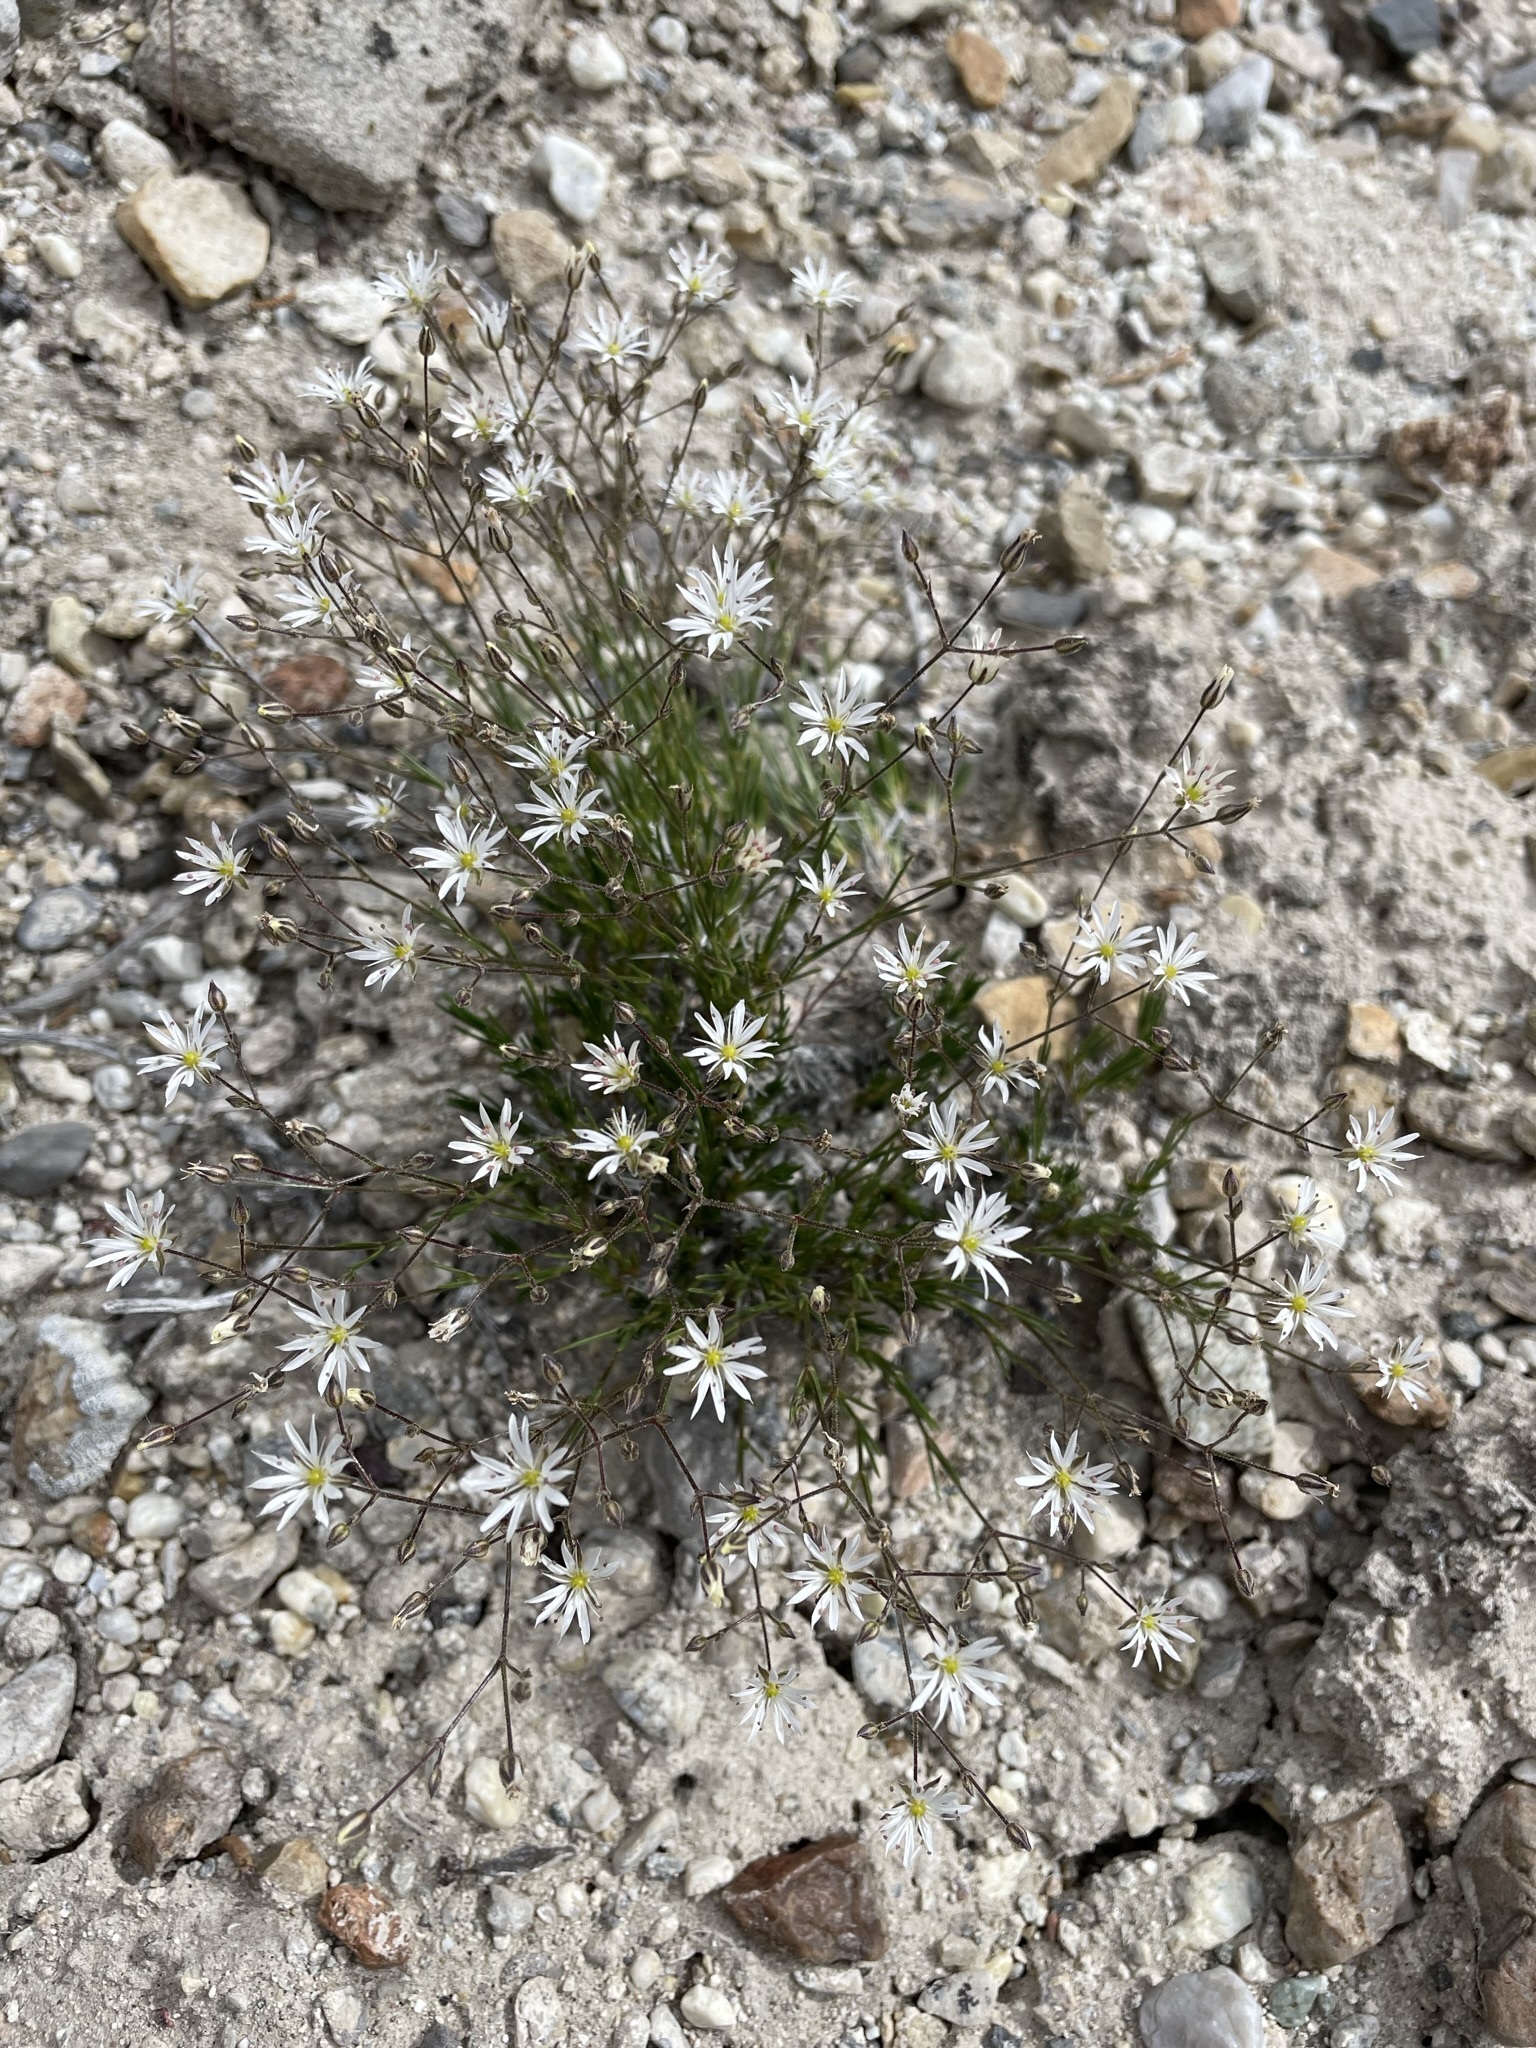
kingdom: Plantae
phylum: Tracheophyta
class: Magnoliopsida
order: Caryophyllales
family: Caryophyllaceae
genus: Eremogone
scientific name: Eremogone kingii
